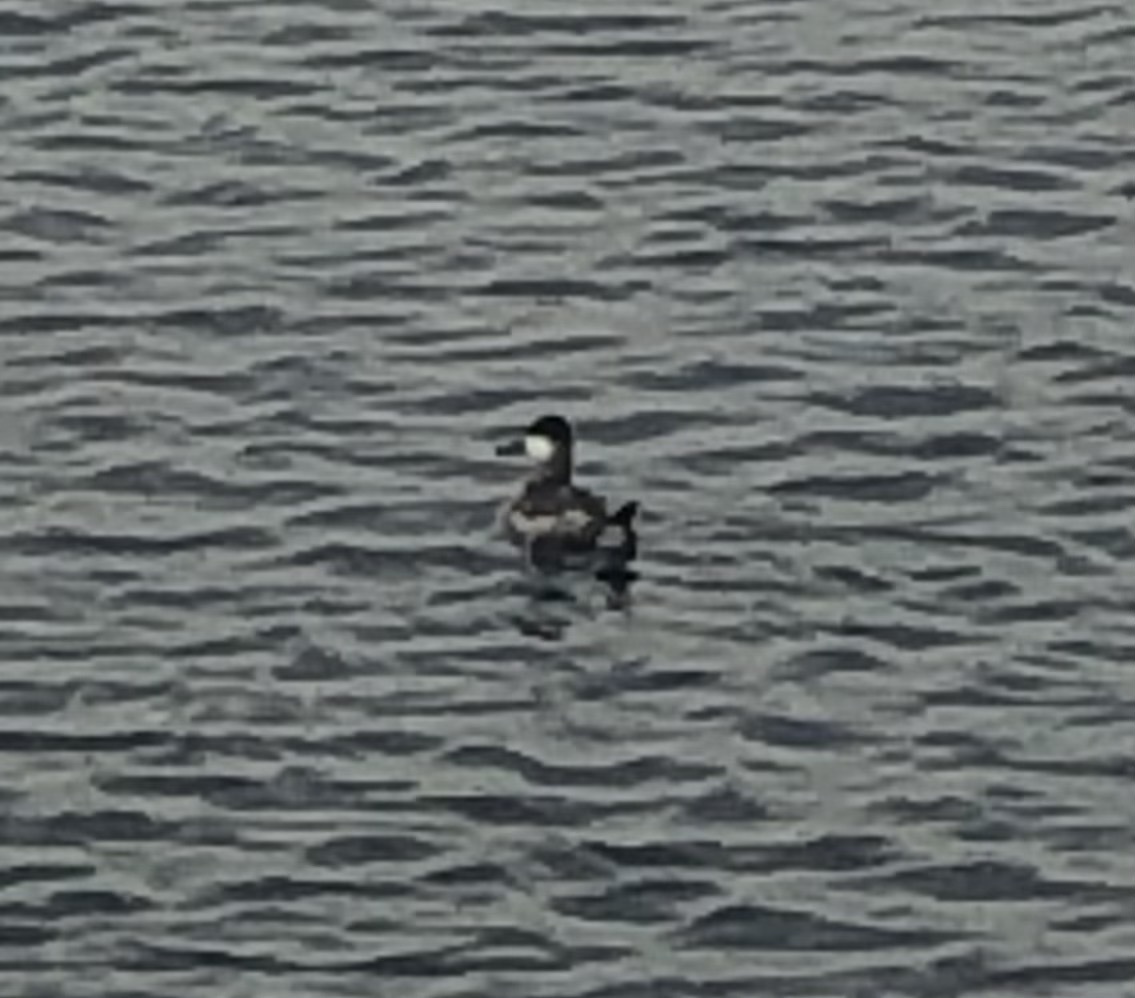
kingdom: Animalia
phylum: Chordata
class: Aves
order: Anseriformes
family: Anatidae
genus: Oxyura
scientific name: Oxyura jamaicensis
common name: Ruddy duck
